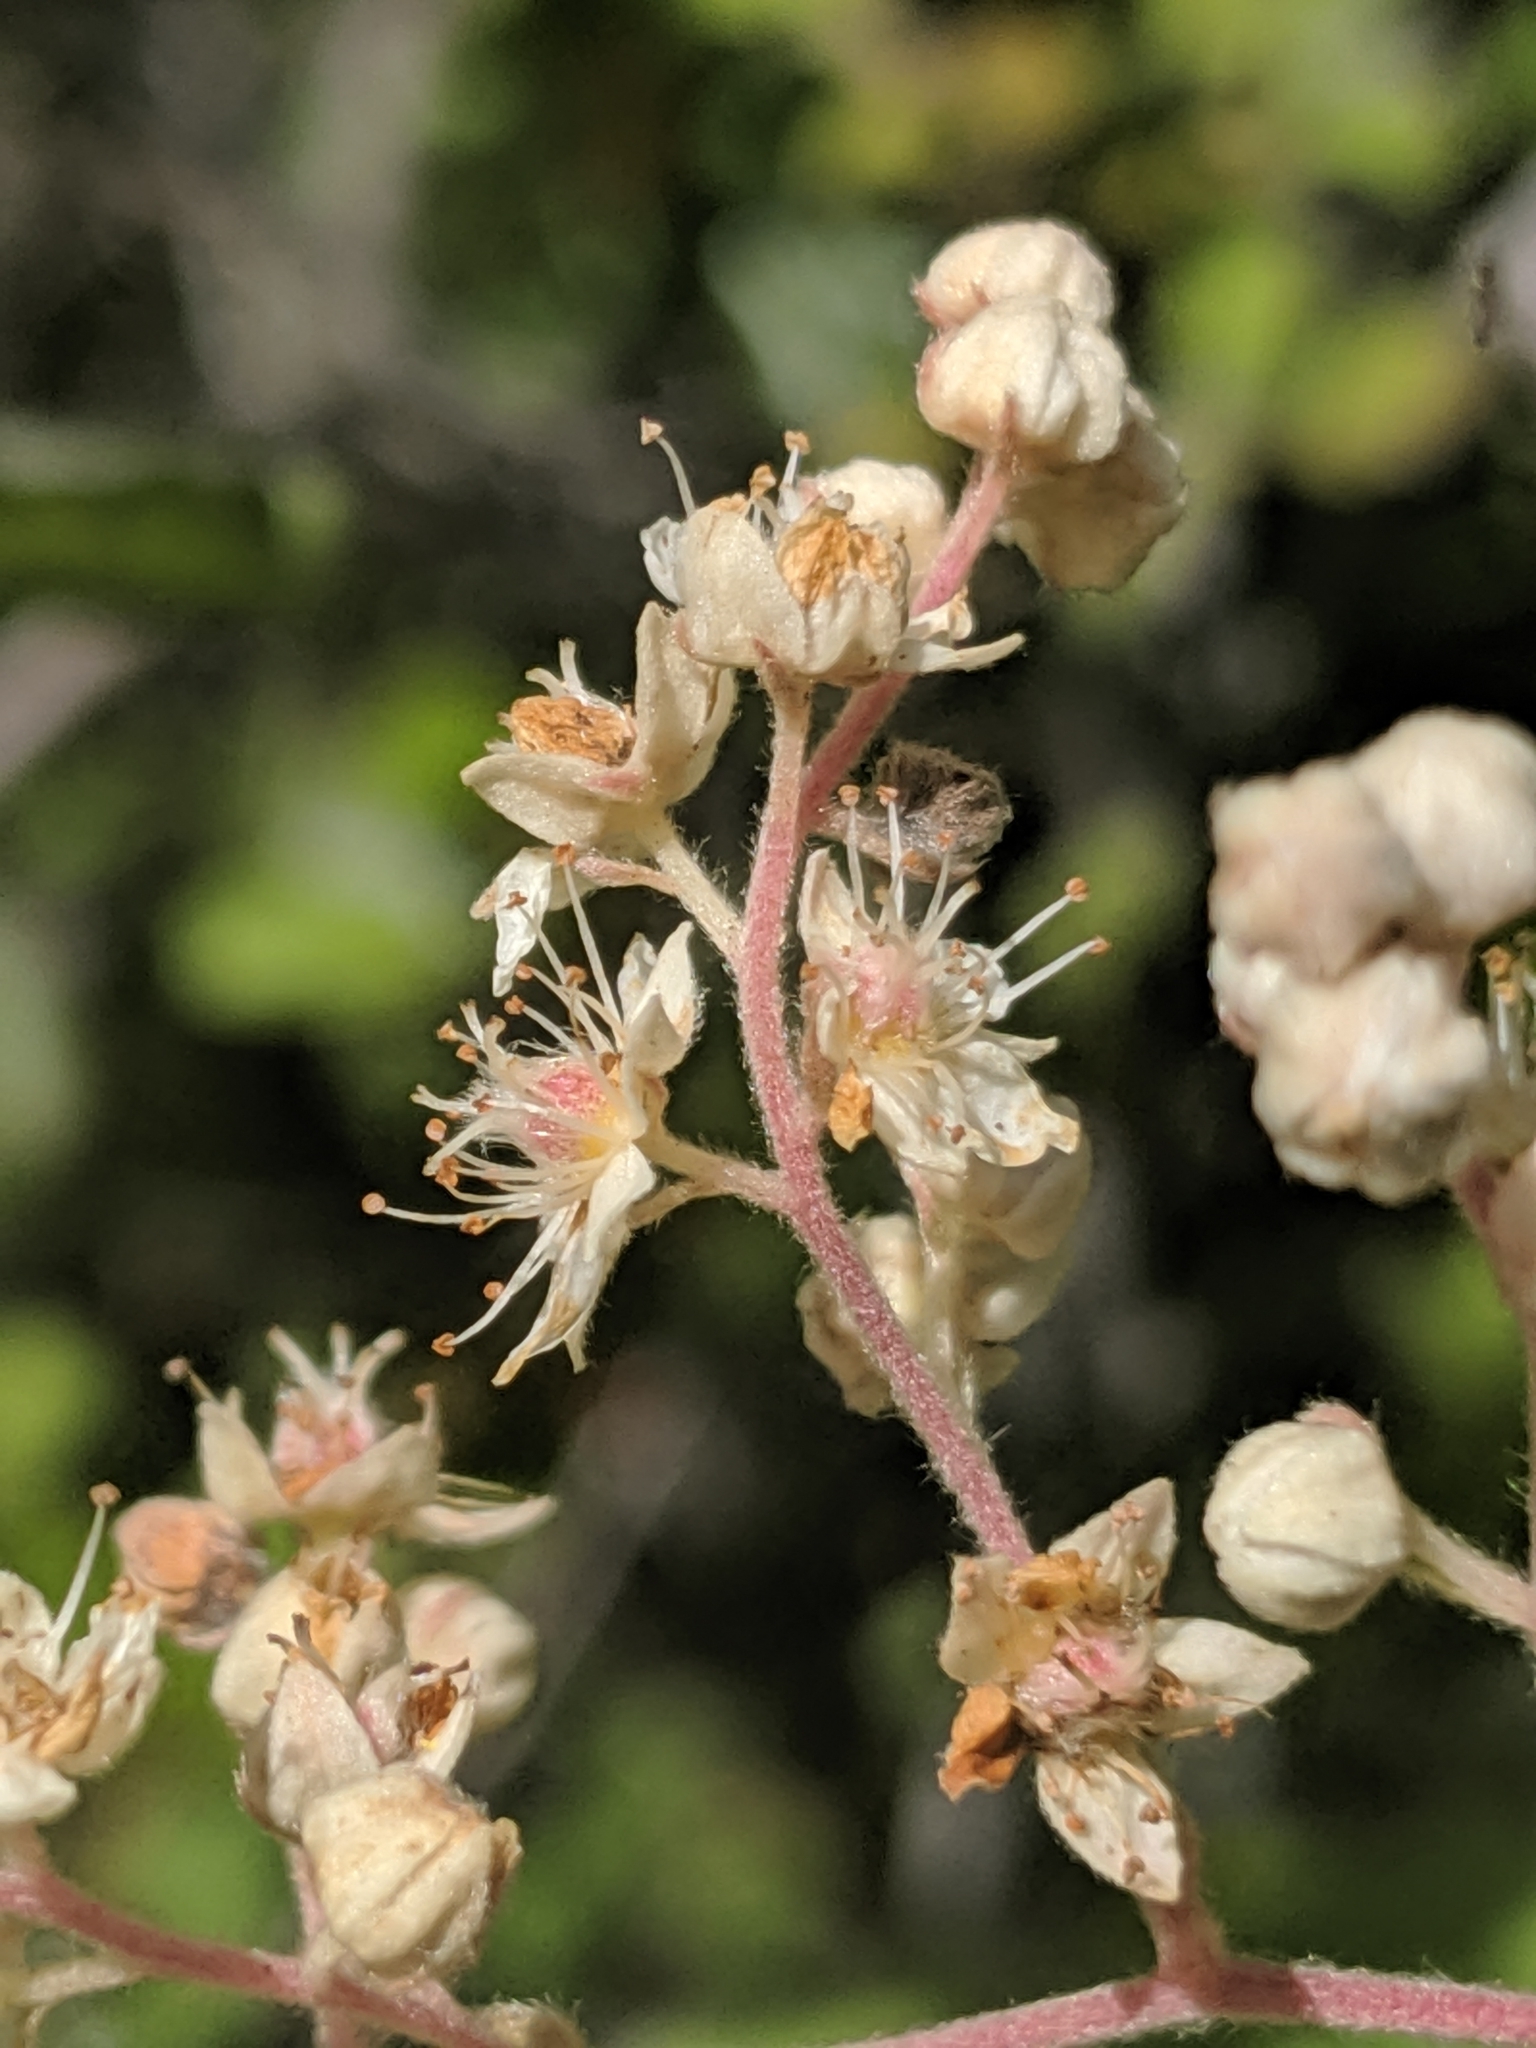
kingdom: Plantae
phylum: Tracheophyta
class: Magnoliopsida
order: Rosales
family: Rosaceae
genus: Holodiscus
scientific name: Holodiscus discolor
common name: Oceanspray
